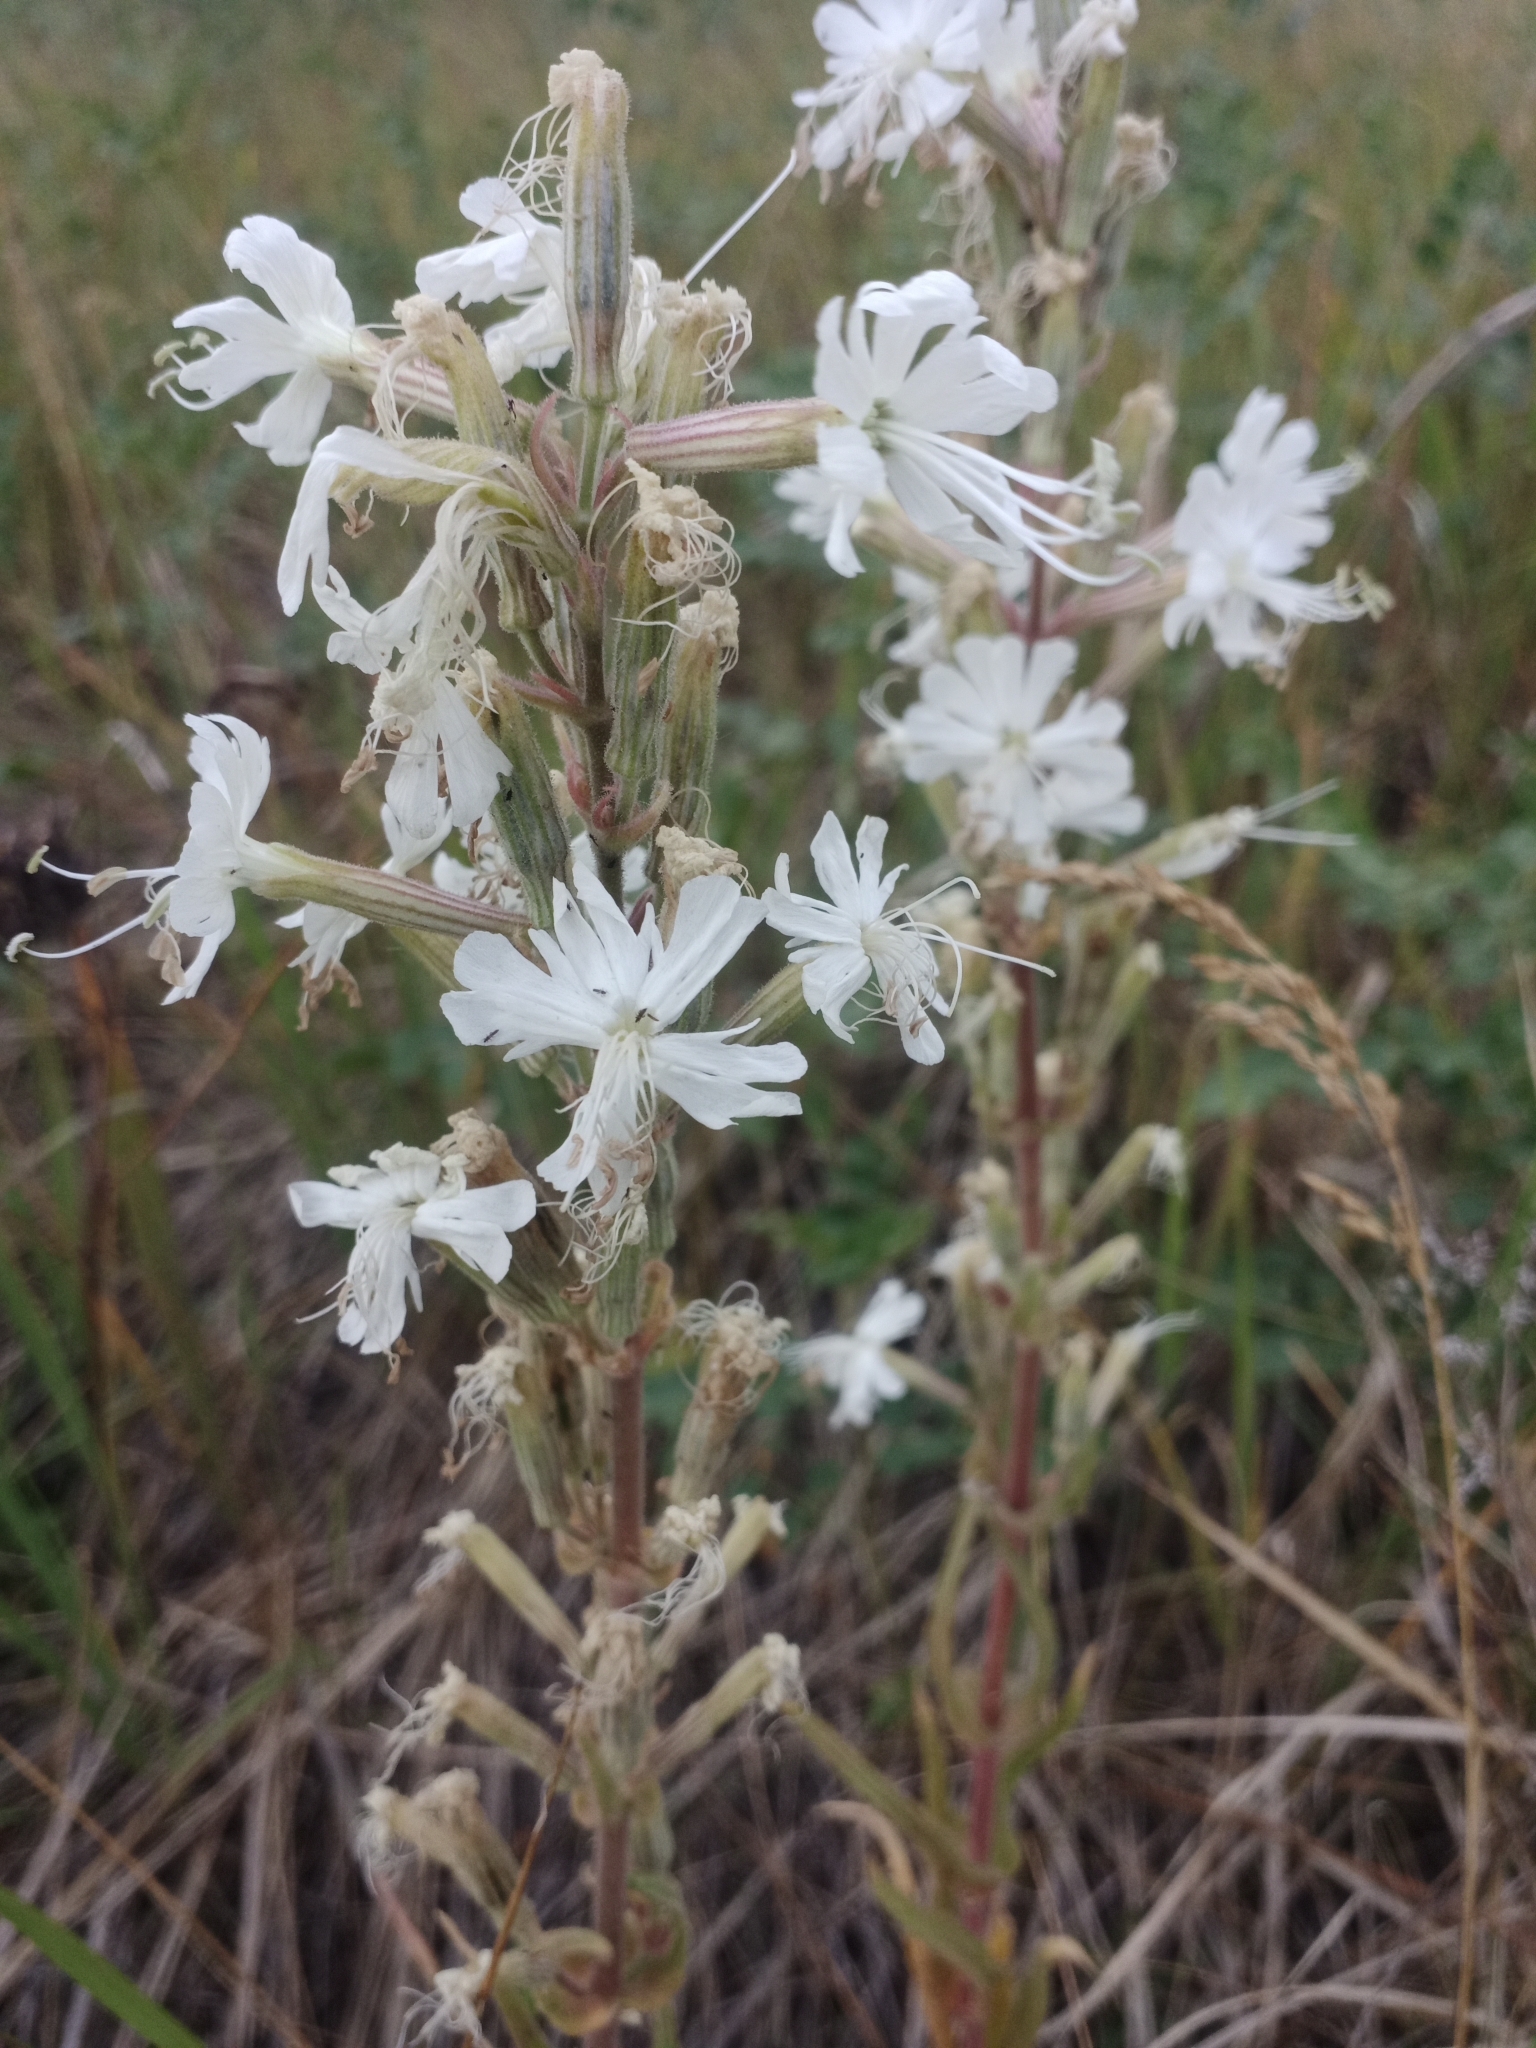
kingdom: Plantae
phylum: Tracheophyta
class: Magnoliopsida
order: Caryophyllales
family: Caryophyllaceae
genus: Silene
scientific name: Silene viscosa
